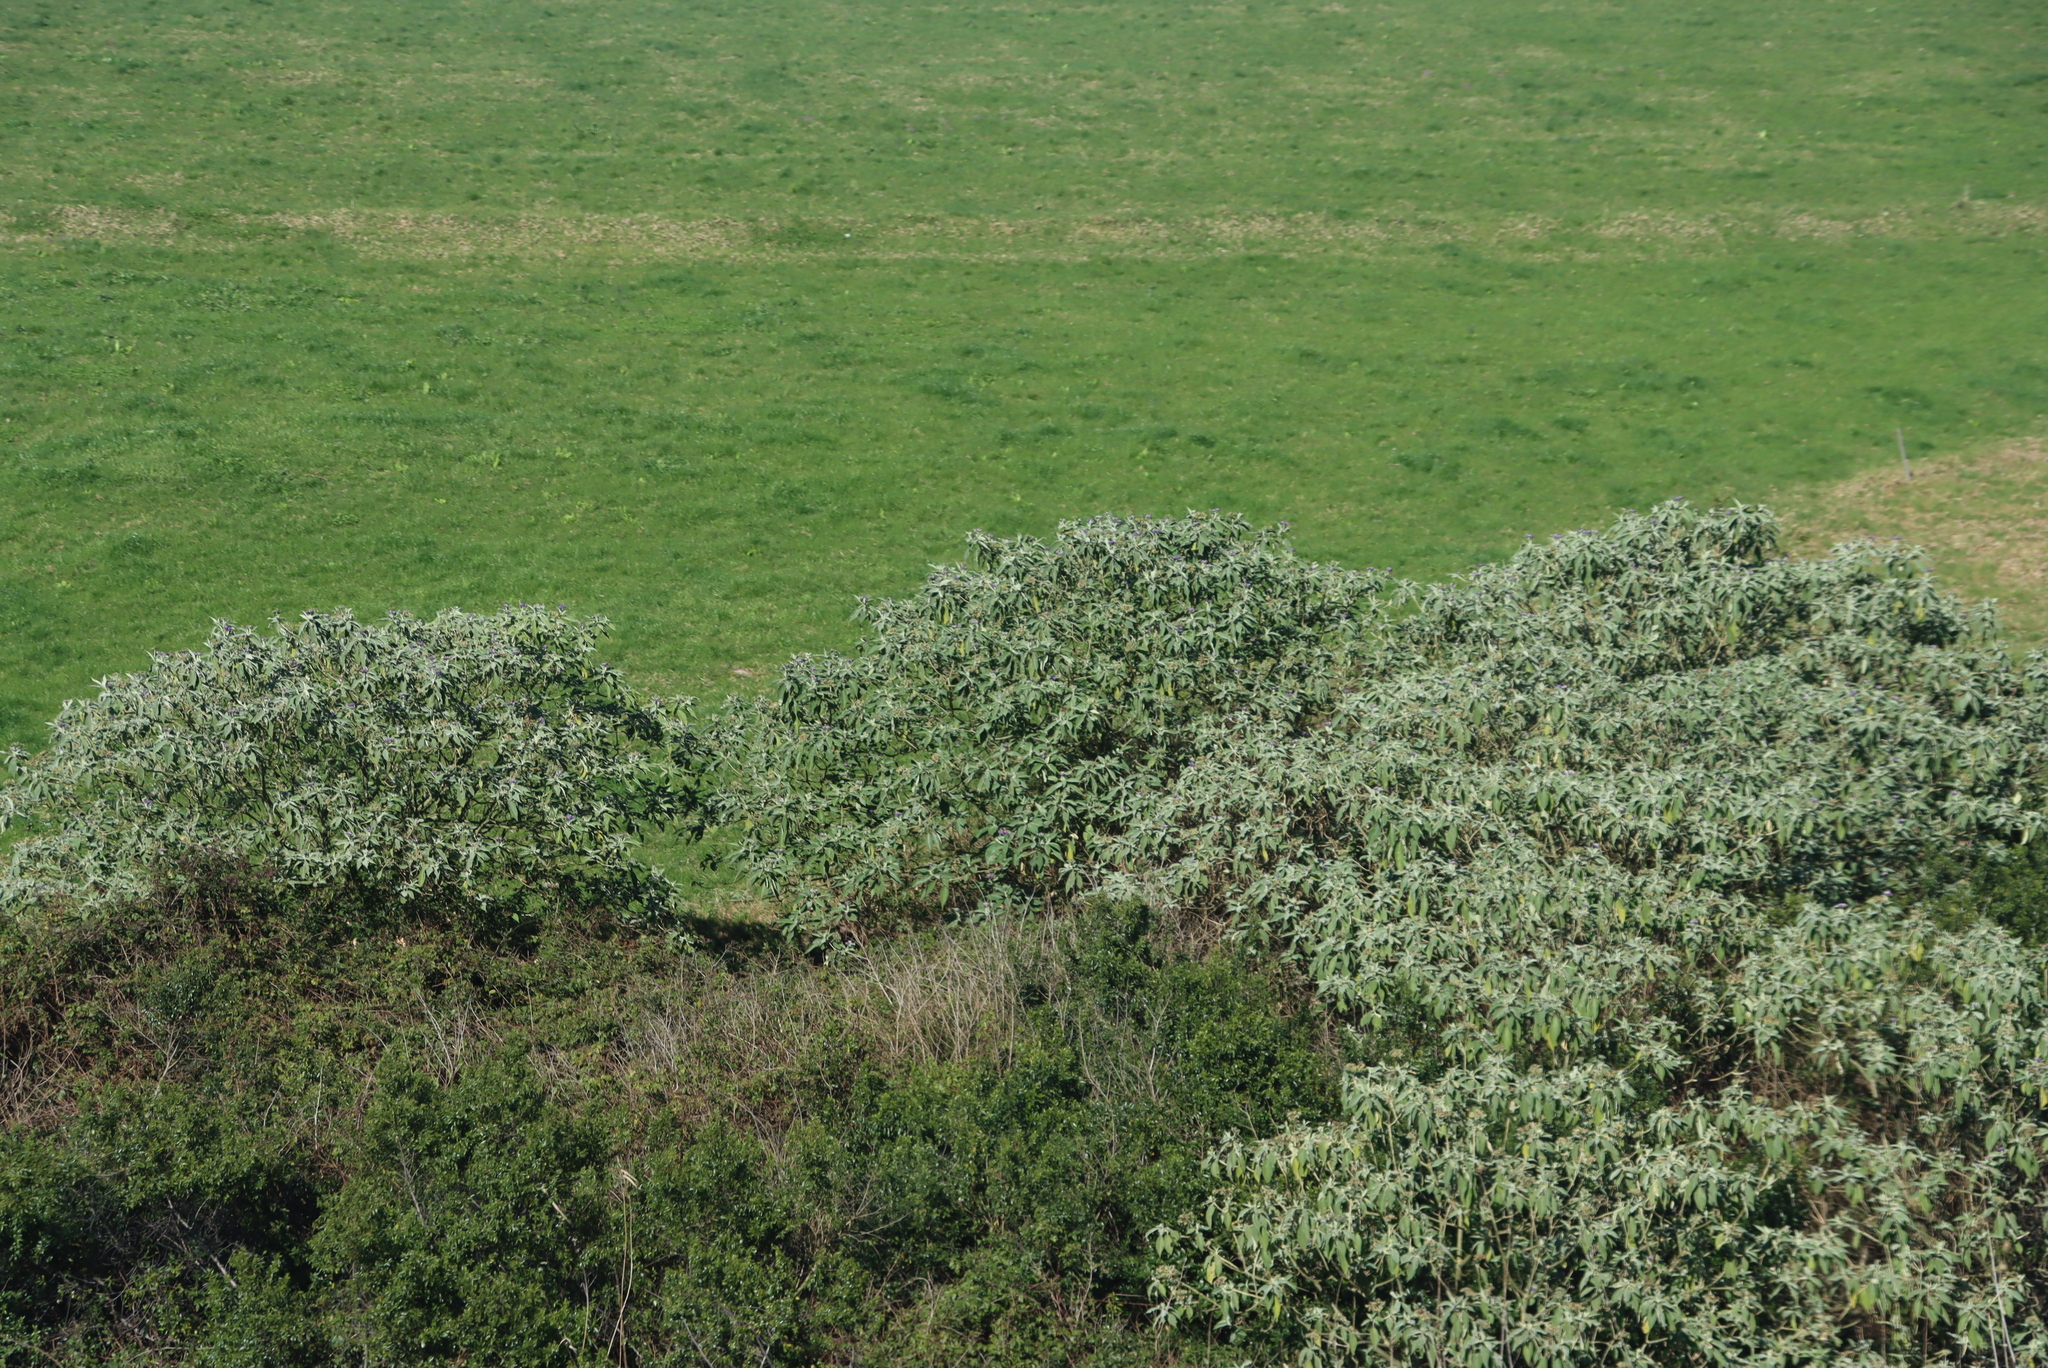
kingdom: Plantae
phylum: Tracheophyta
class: Magnoliopsida
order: Solanales
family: Solanaceae
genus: Solanum
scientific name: Solanum mauritianum
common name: Earleaf nightshade
